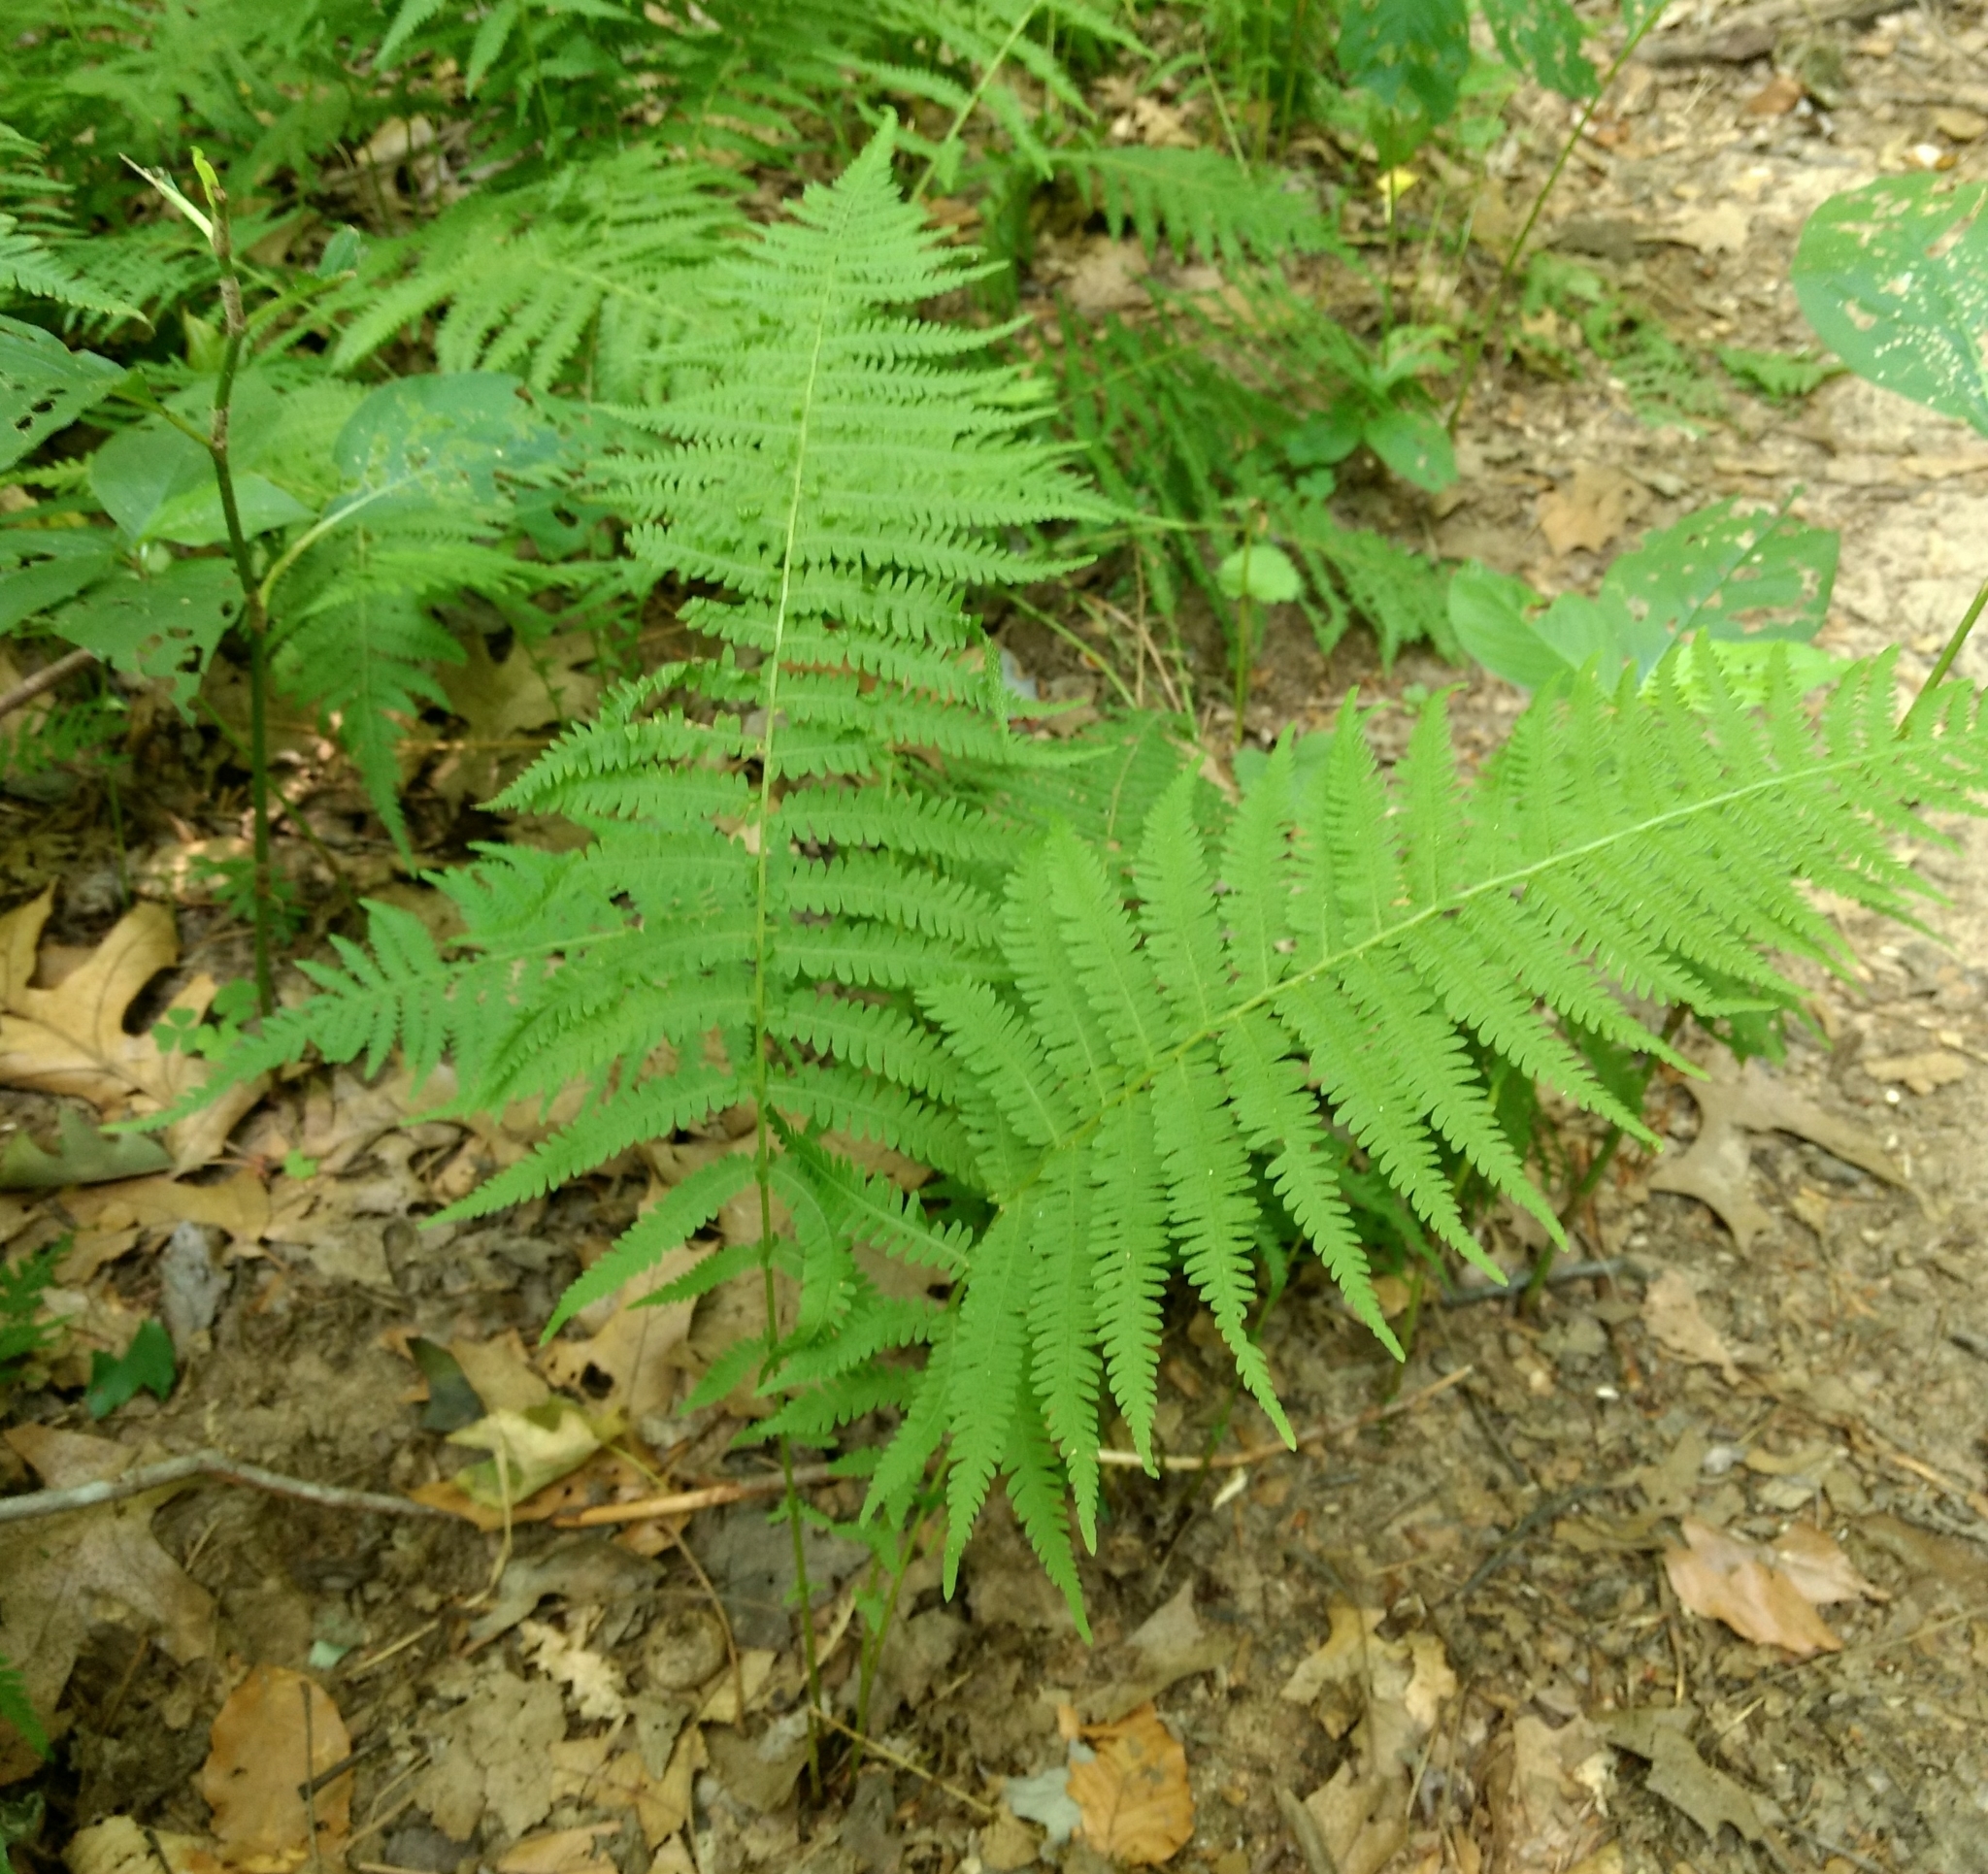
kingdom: Plantae
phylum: Tracheophyta
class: Polypodiopsida
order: Polypodiales
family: Thelypteridaceae
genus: Amauropelta
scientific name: Amauropelta noveboracensis
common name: New york fern
